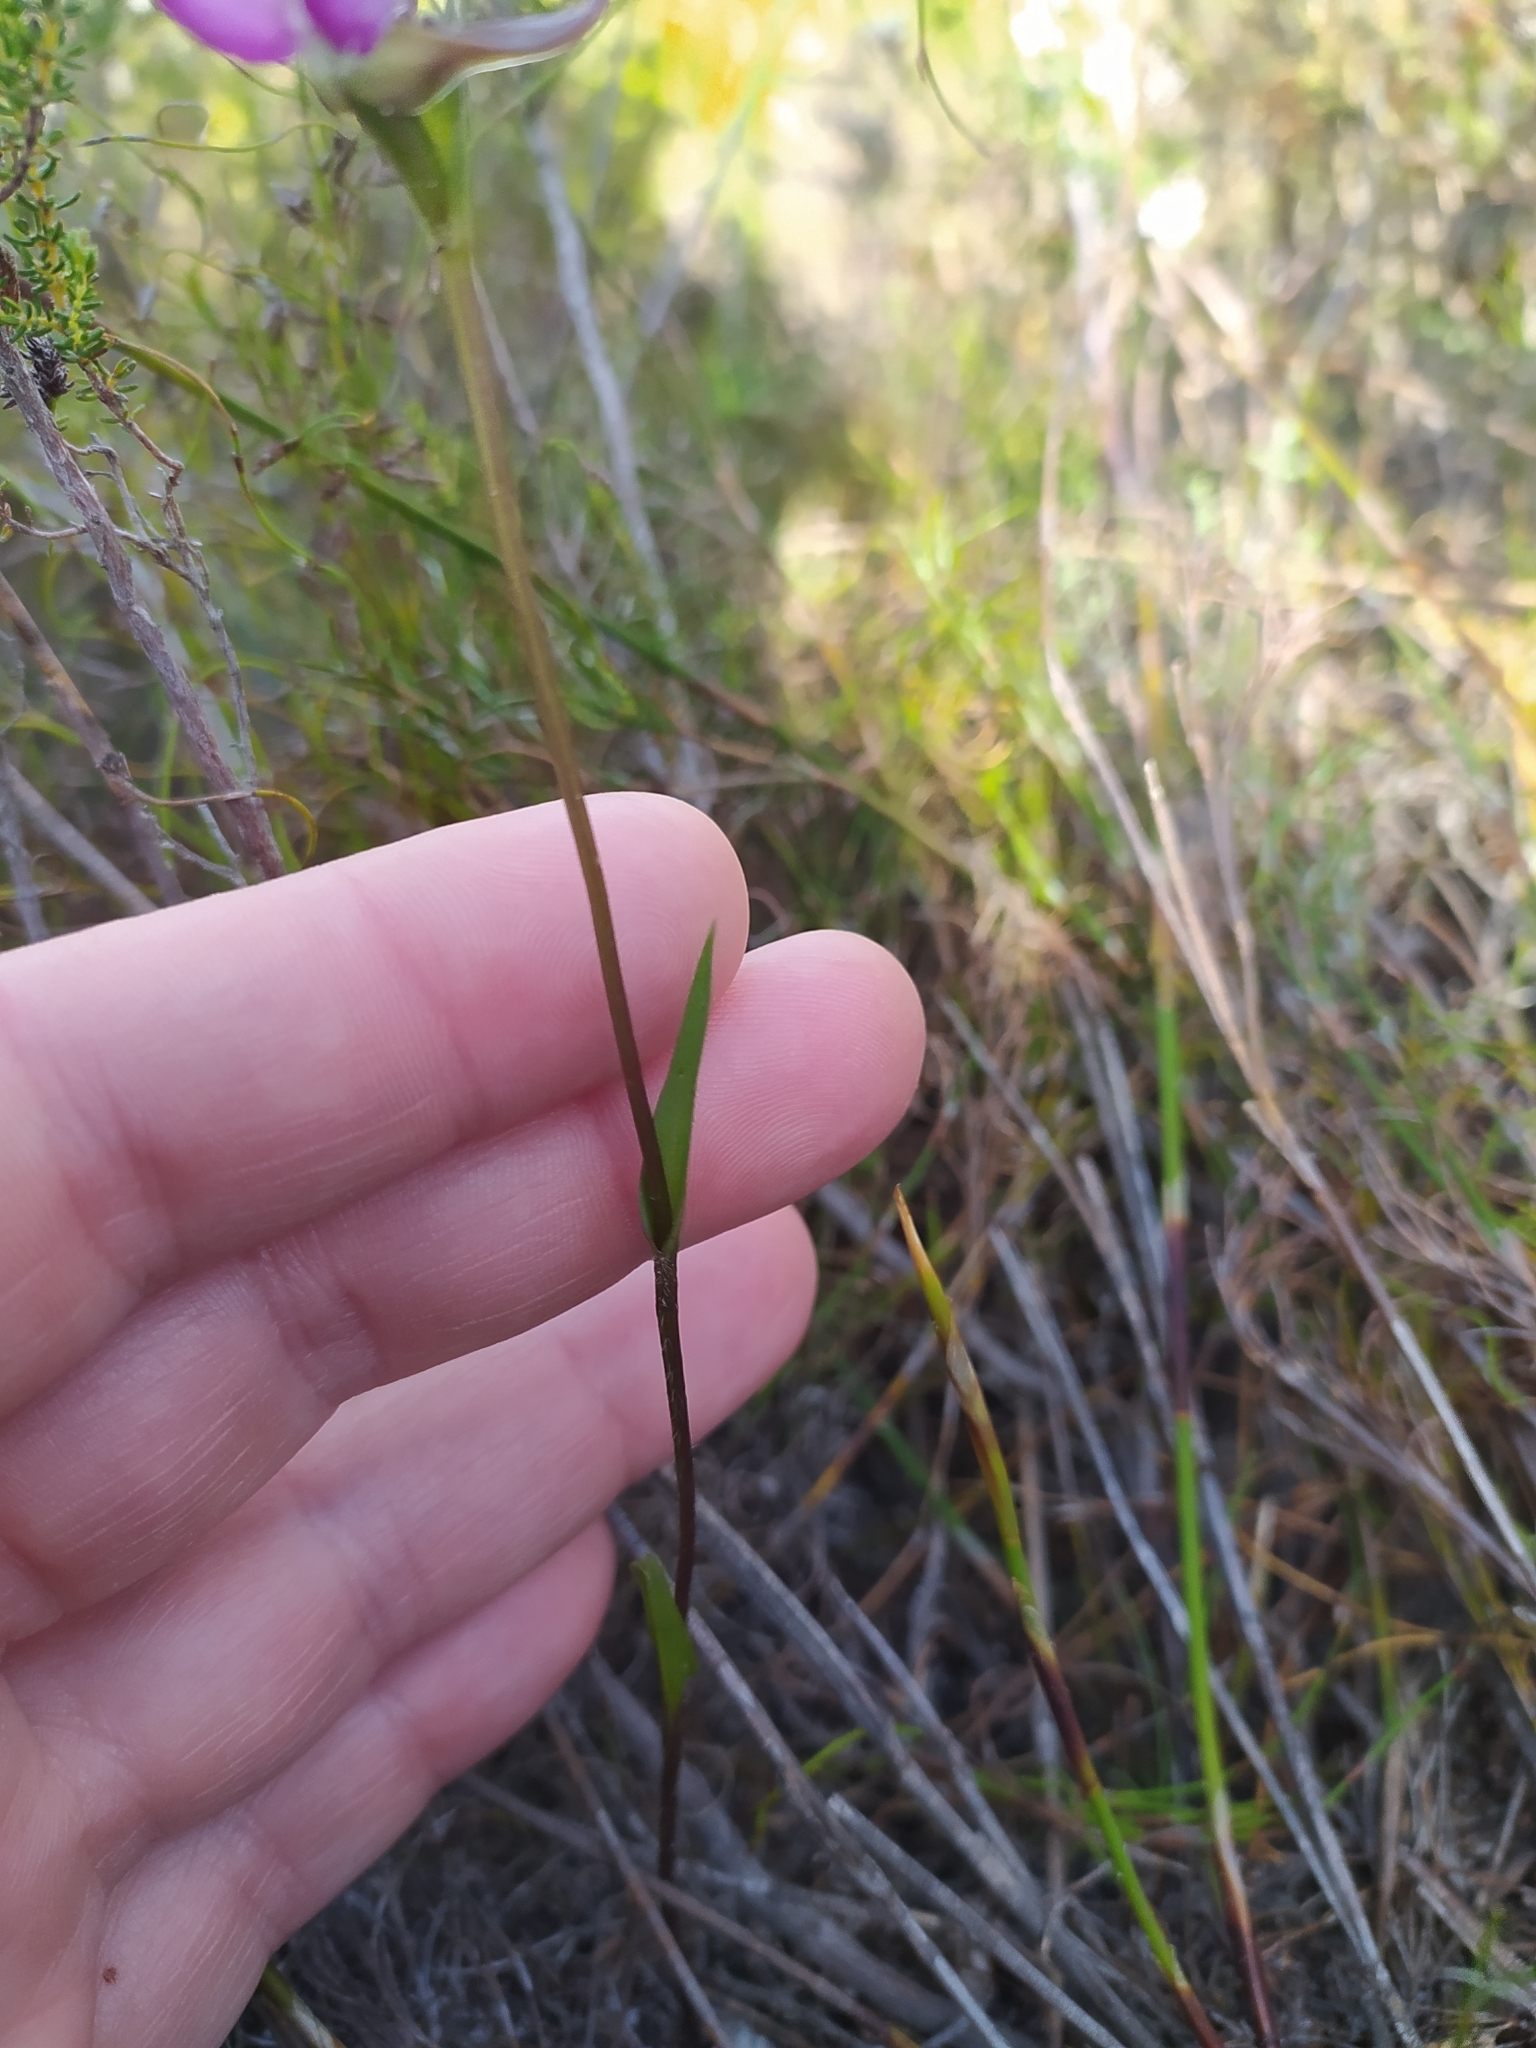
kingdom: Plantae
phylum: Tracheophyta
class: Liliopsida
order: Asparagales
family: Orchidaceae
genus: Disperis
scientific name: Disperis capensis
